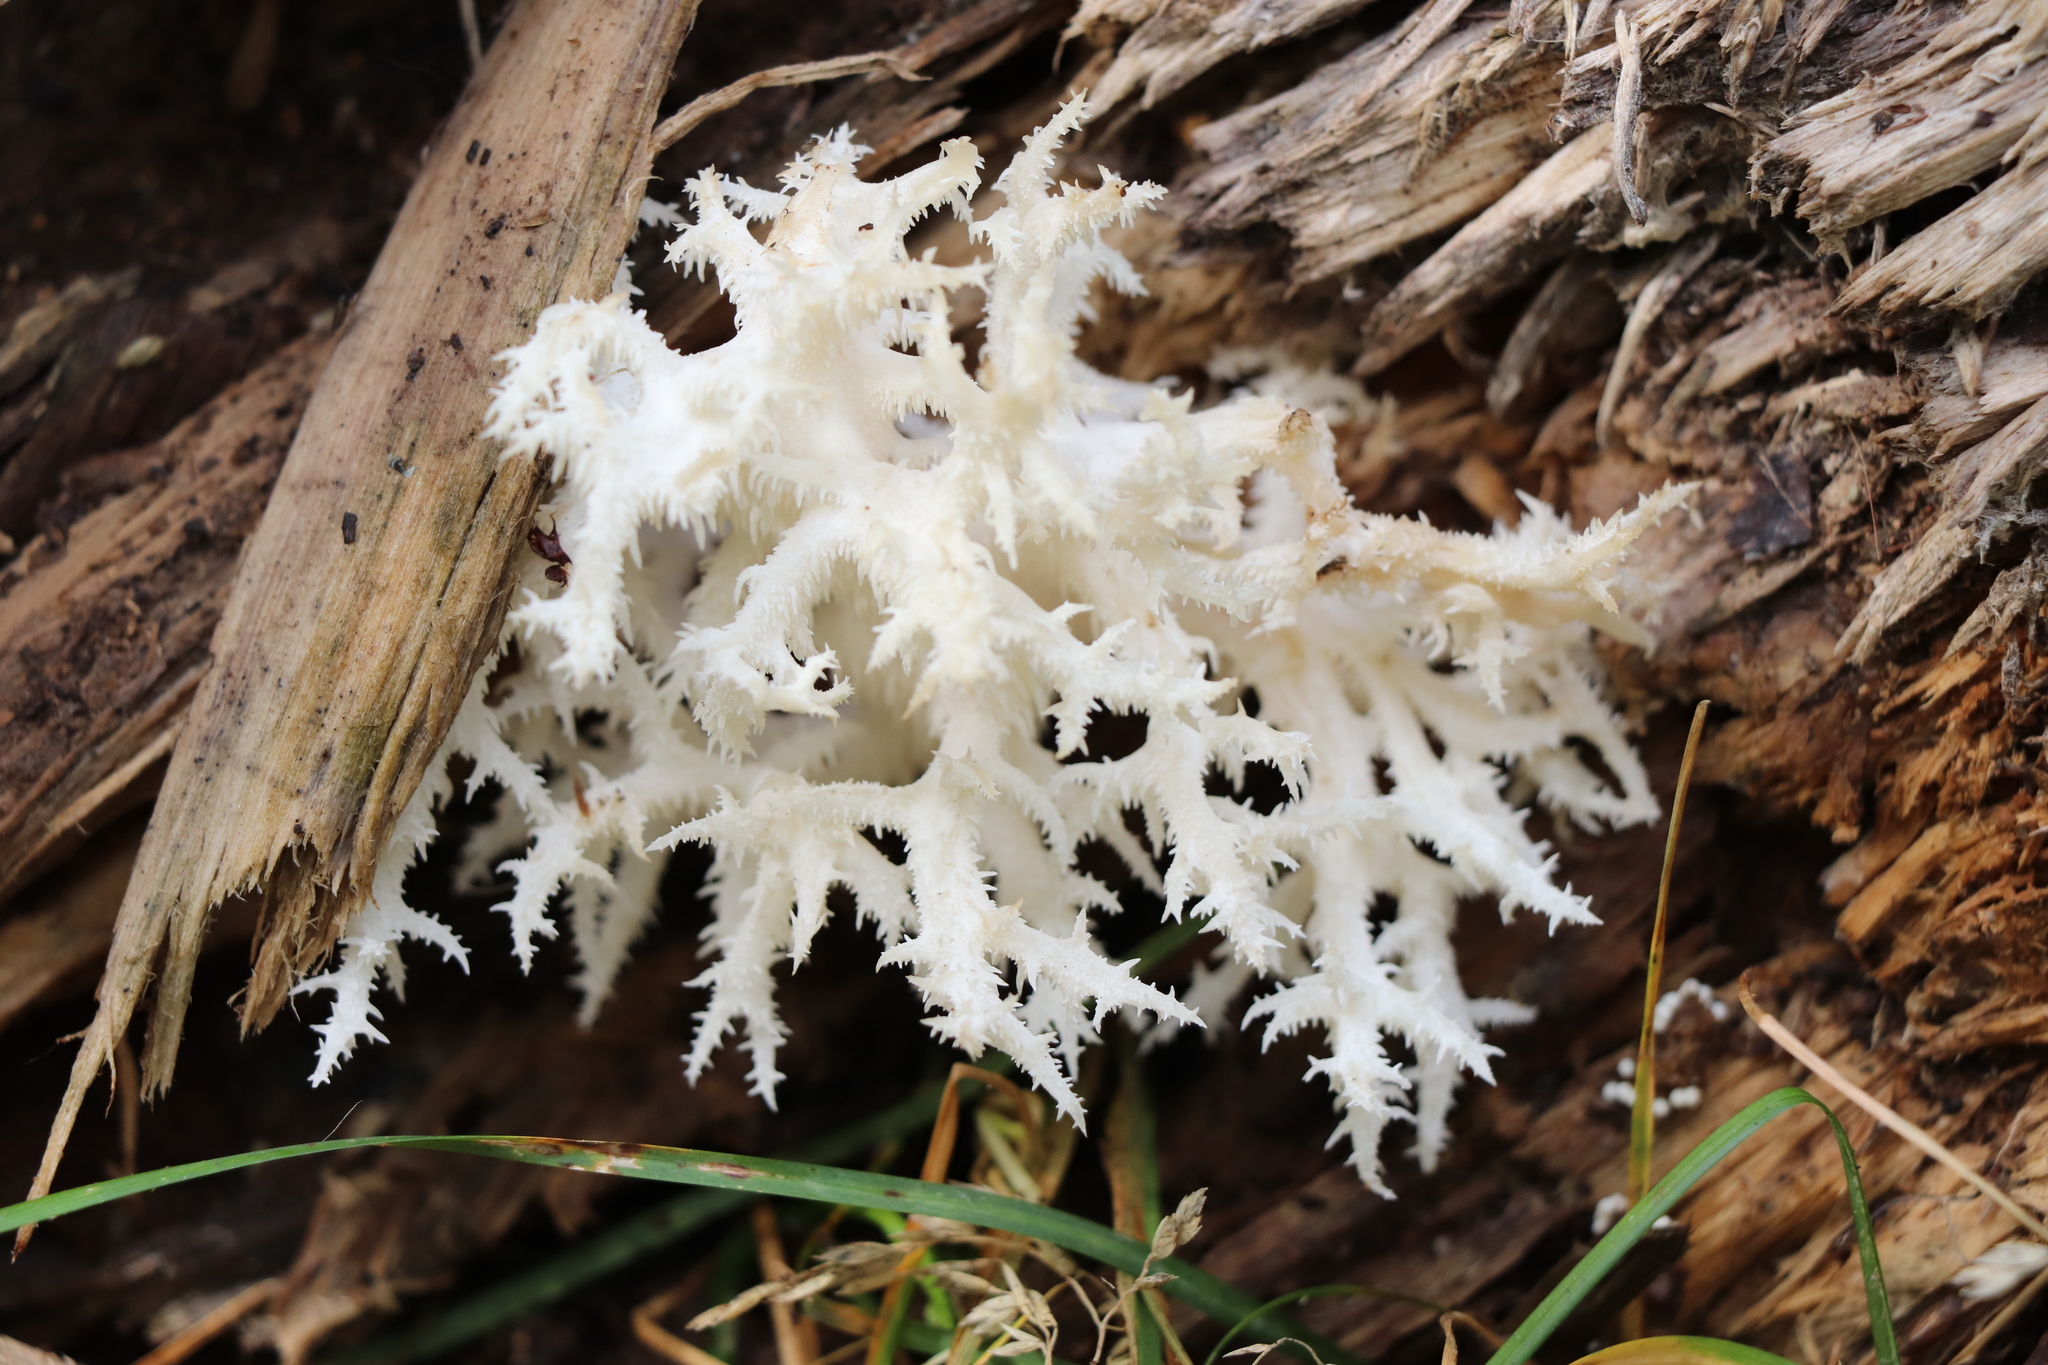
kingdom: Fungi
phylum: Basidiomycota
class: Agaricomycetes
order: Russulales
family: Hericiaceae
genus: Hericium
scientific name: Hericium coralloides
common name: Coral tooth
